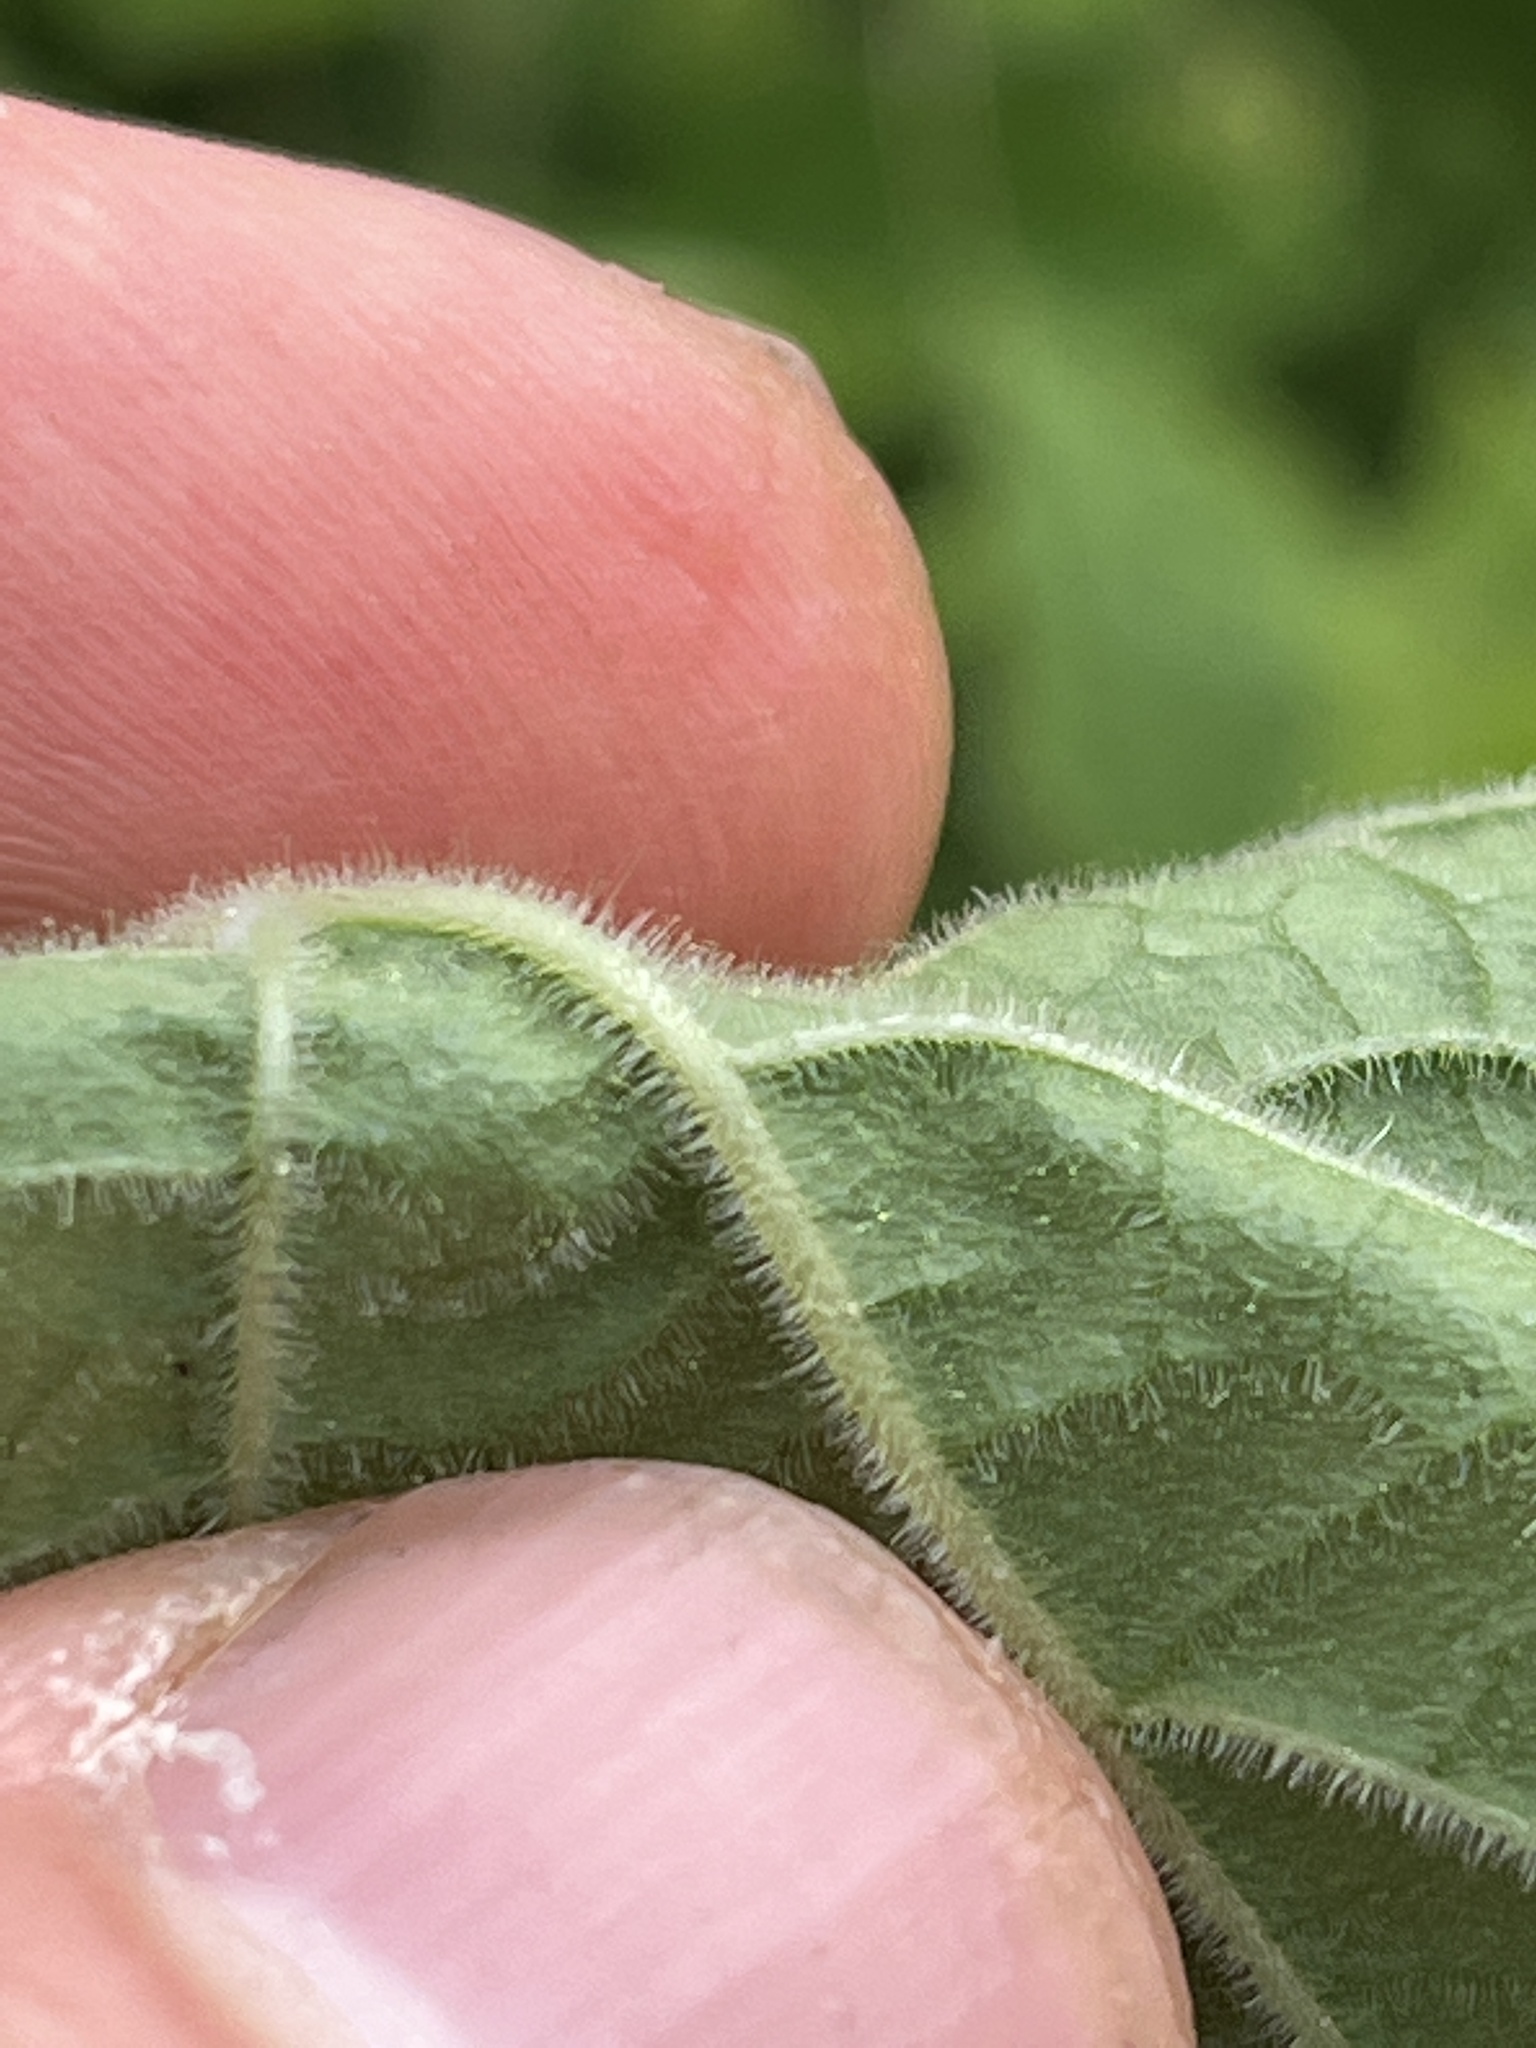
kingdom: Plantae
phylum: Tracheophyta
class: Magnoliopsida
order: Solanales
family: Solanaceae
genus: Physalis
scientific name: Physalis heterophylla
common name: Clammy ground-cherry
